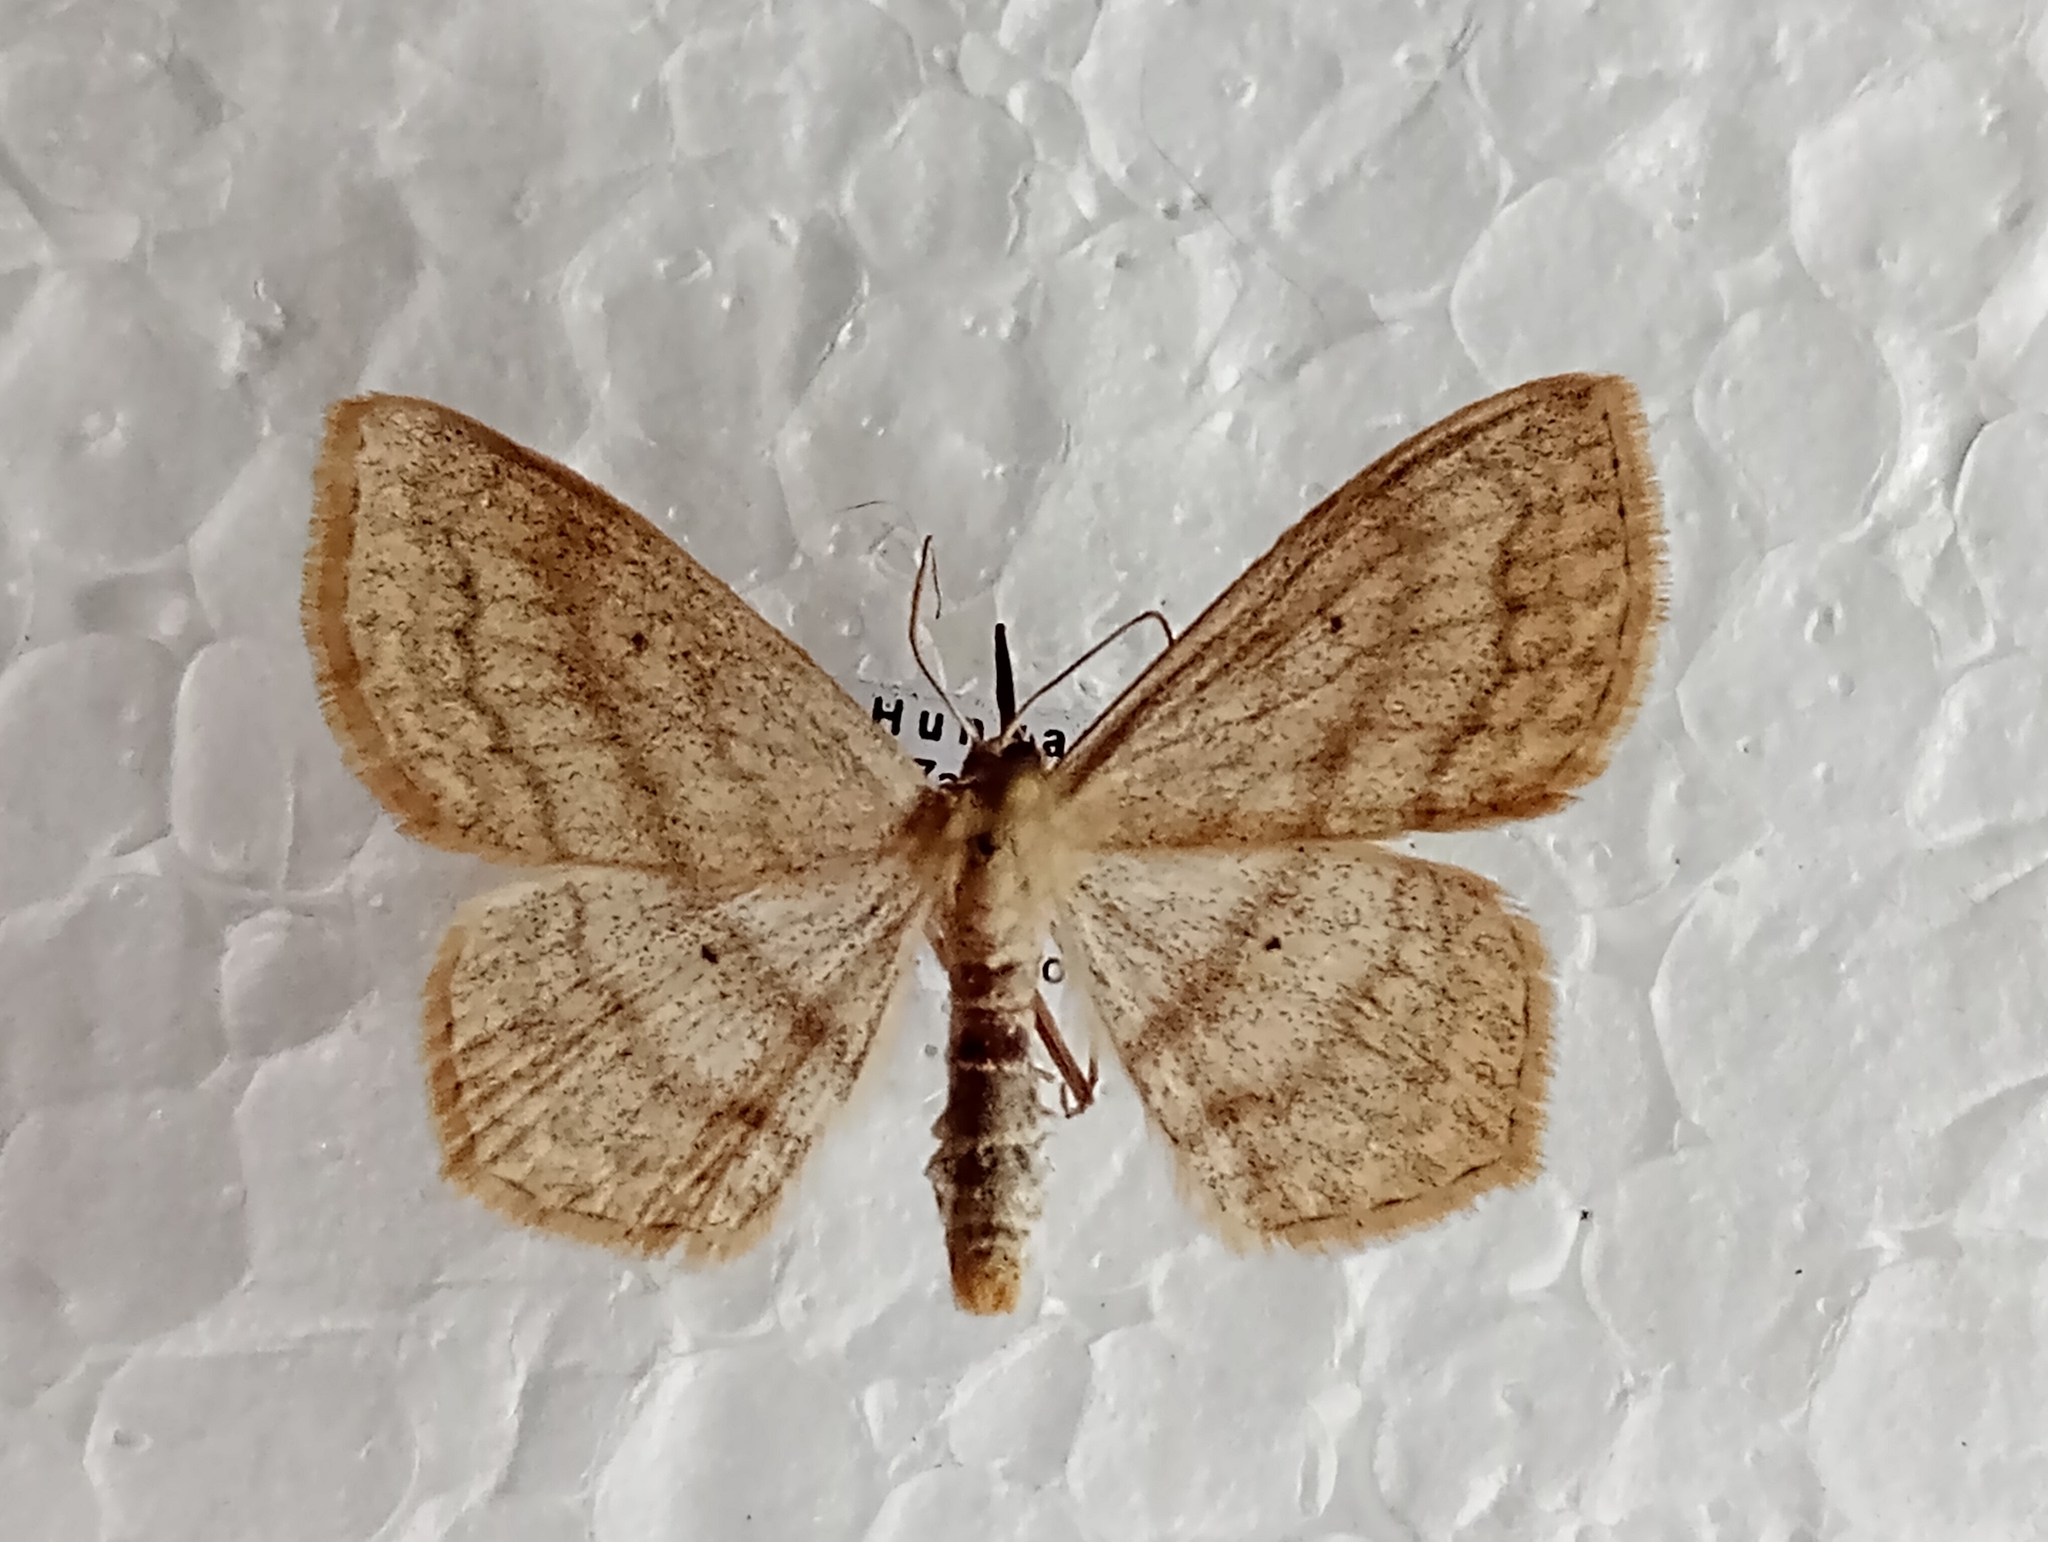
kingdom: Animalia
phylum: Arthropoda
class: Insecta
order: Lepidoptera
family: Geometridae
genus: Scopula
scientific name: Scopula nigropunctata
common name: Sub-angled wave
